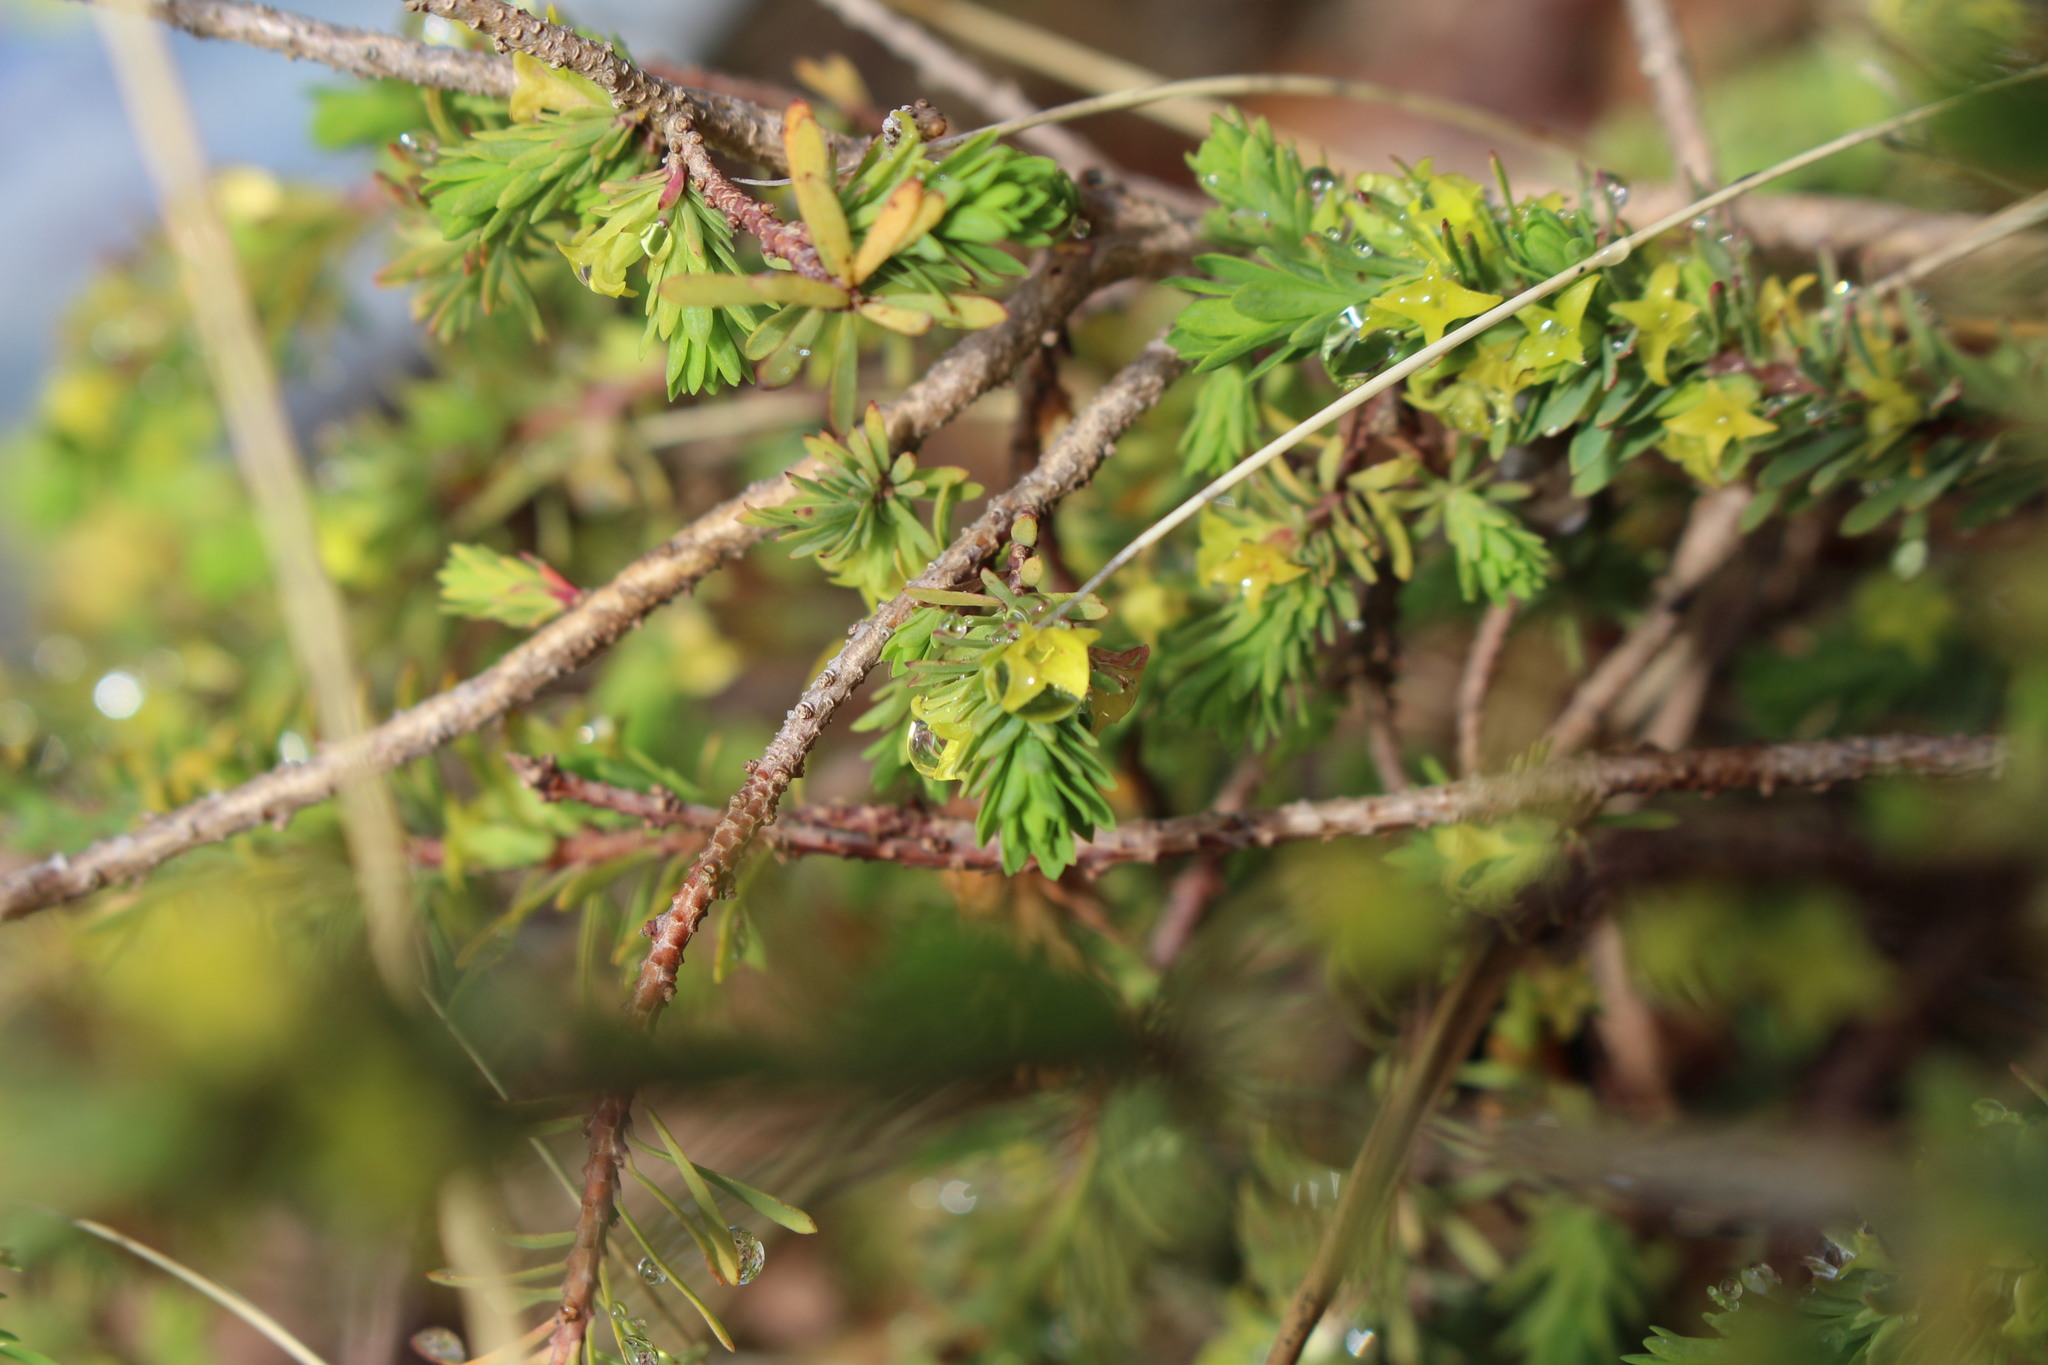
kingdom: Plantae
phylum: Tracheophyta
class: Magnoliopsida
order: Malvales
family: Thymelaeaceae
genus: Thymelaea
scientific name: Thymelaea dioica
